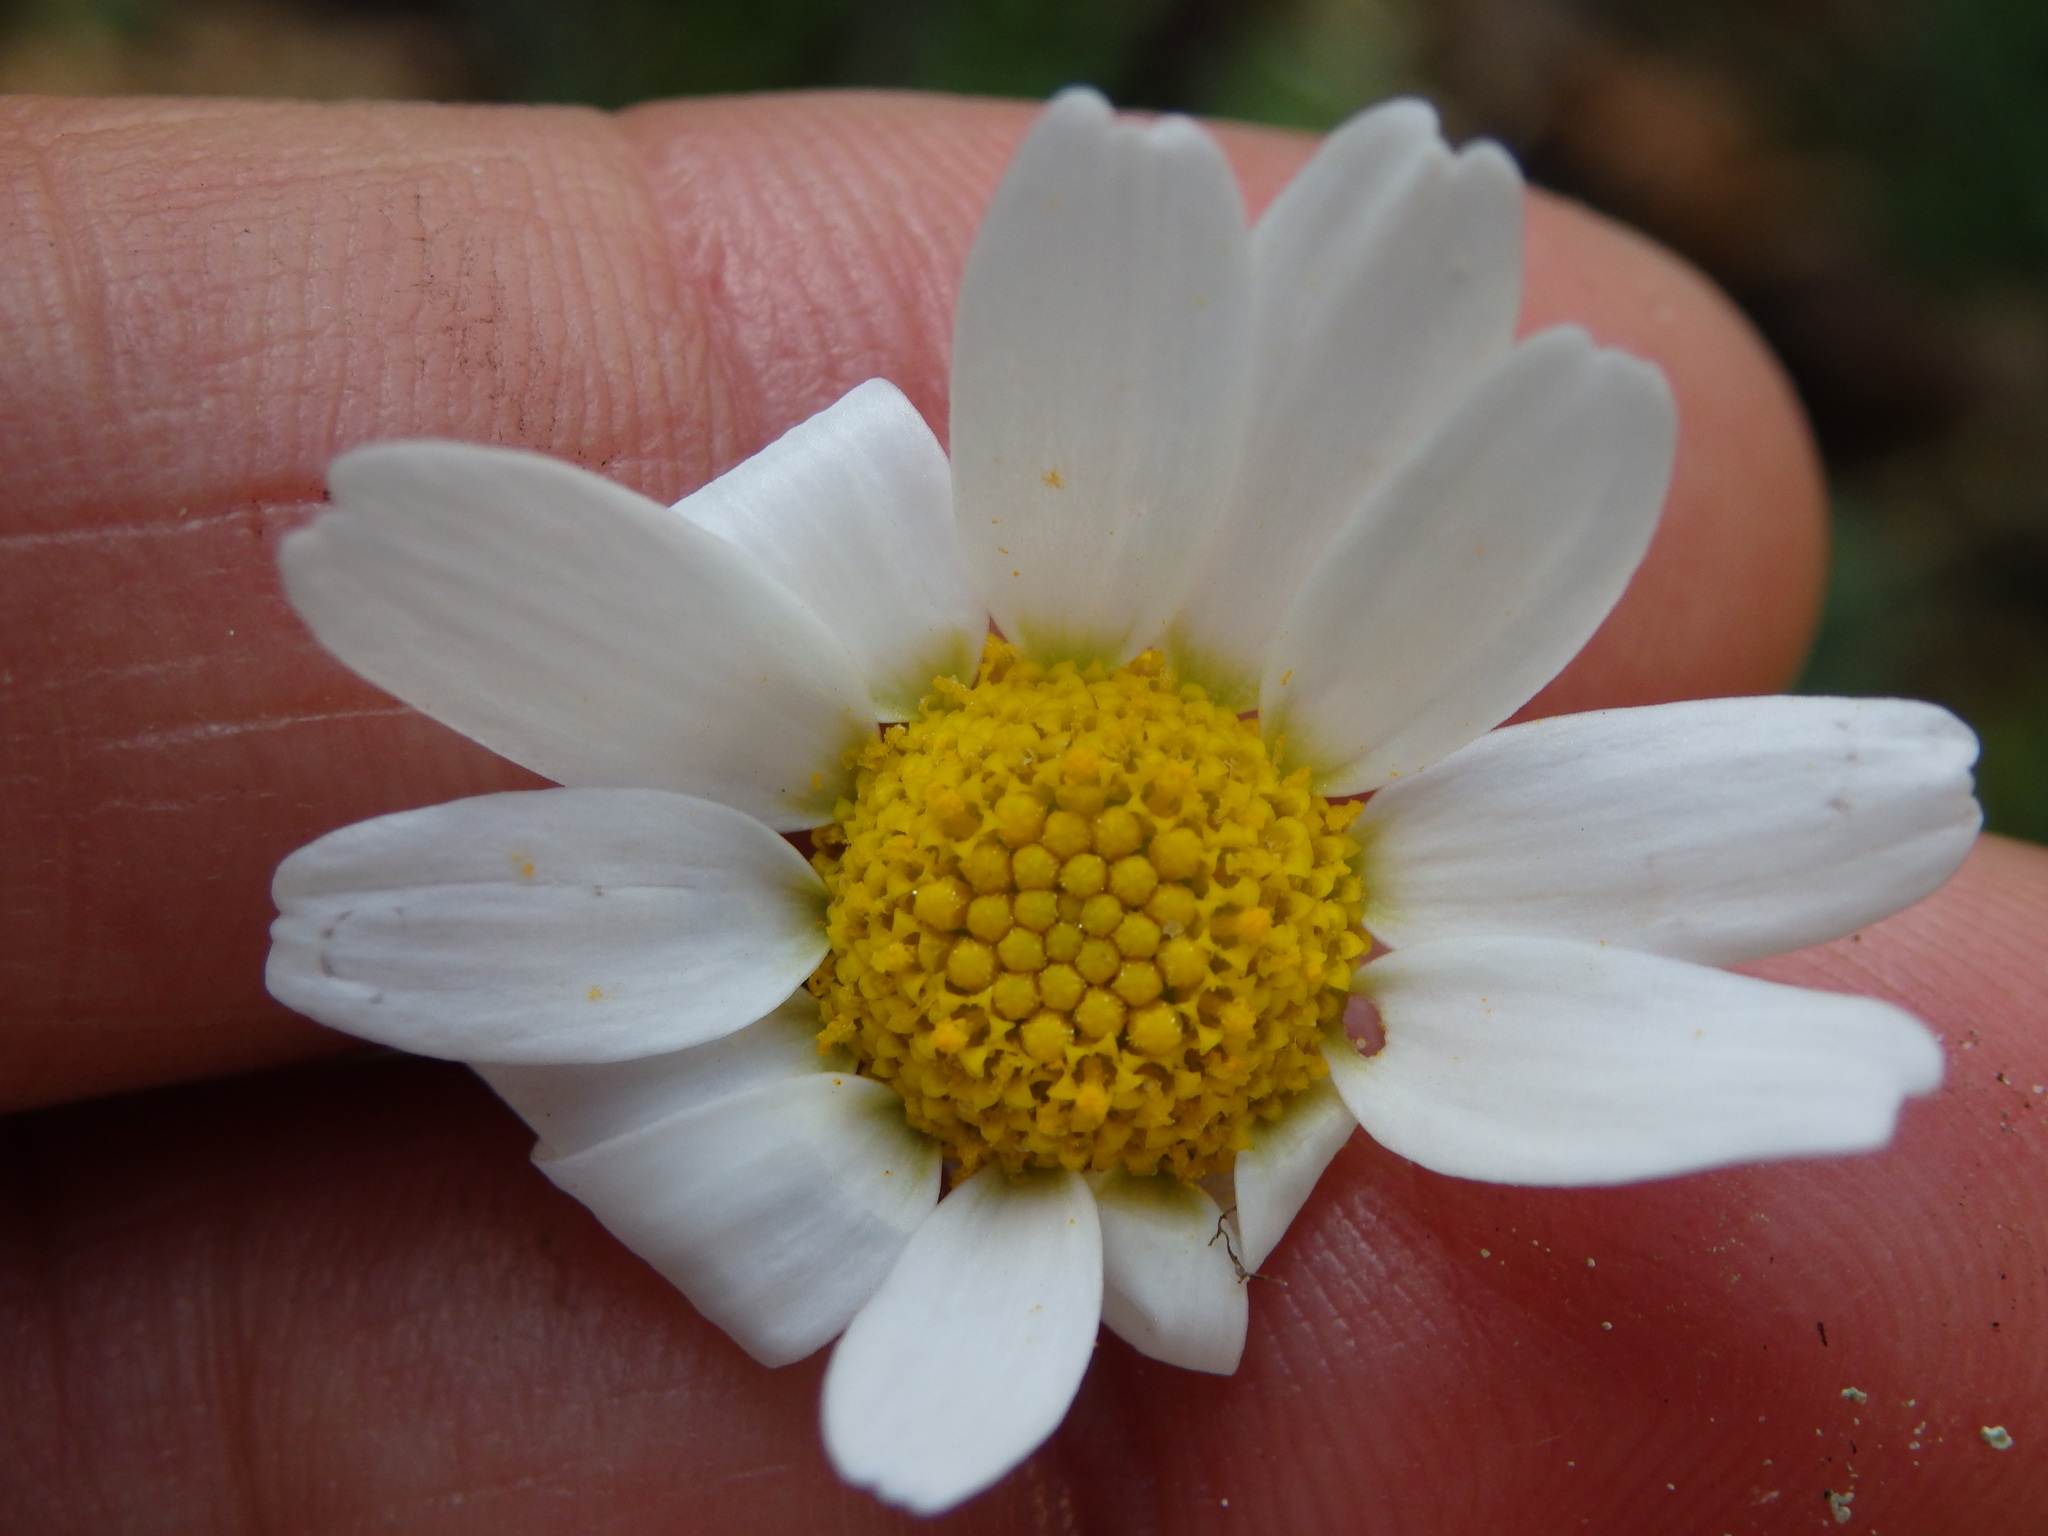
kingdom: Plantae
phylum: Tracheophyta
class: Magnoliopsida
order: Asterales
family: Asteraceae
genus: Anthemis
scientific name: Anthemis cotula
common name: Stinking chamomile
